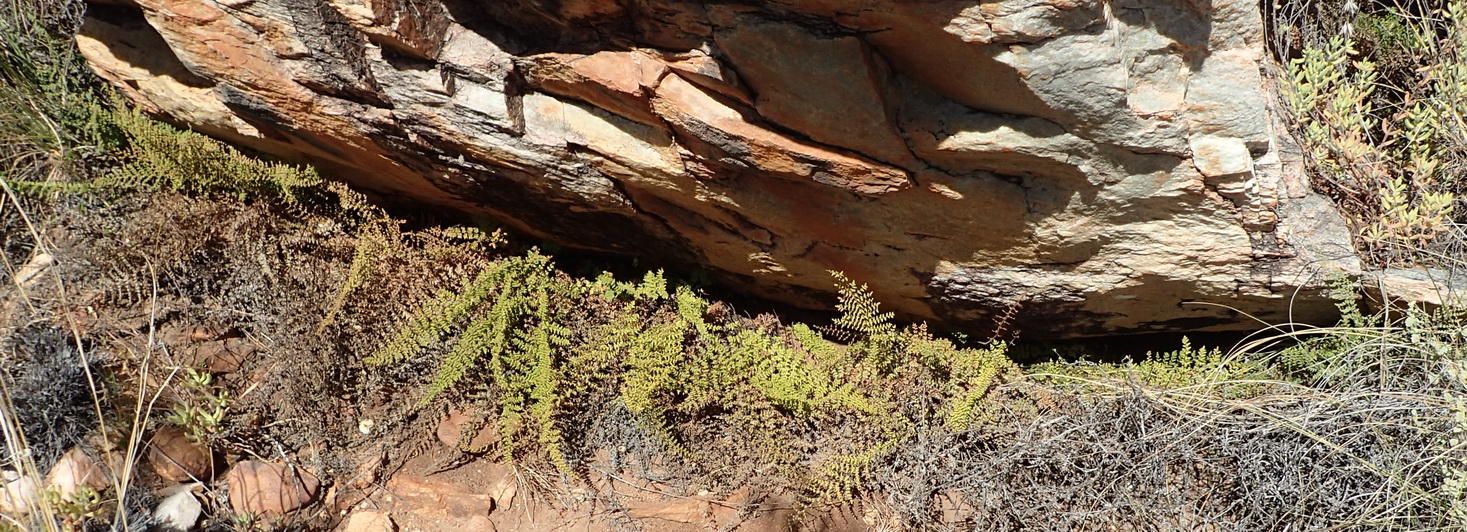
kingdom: Plantae
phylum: Tracheophyta
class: Polypodiopsida
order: Polypodiales
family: Pteridaceae
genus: Cheilanthes
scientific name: Cheilanthes parviloba
